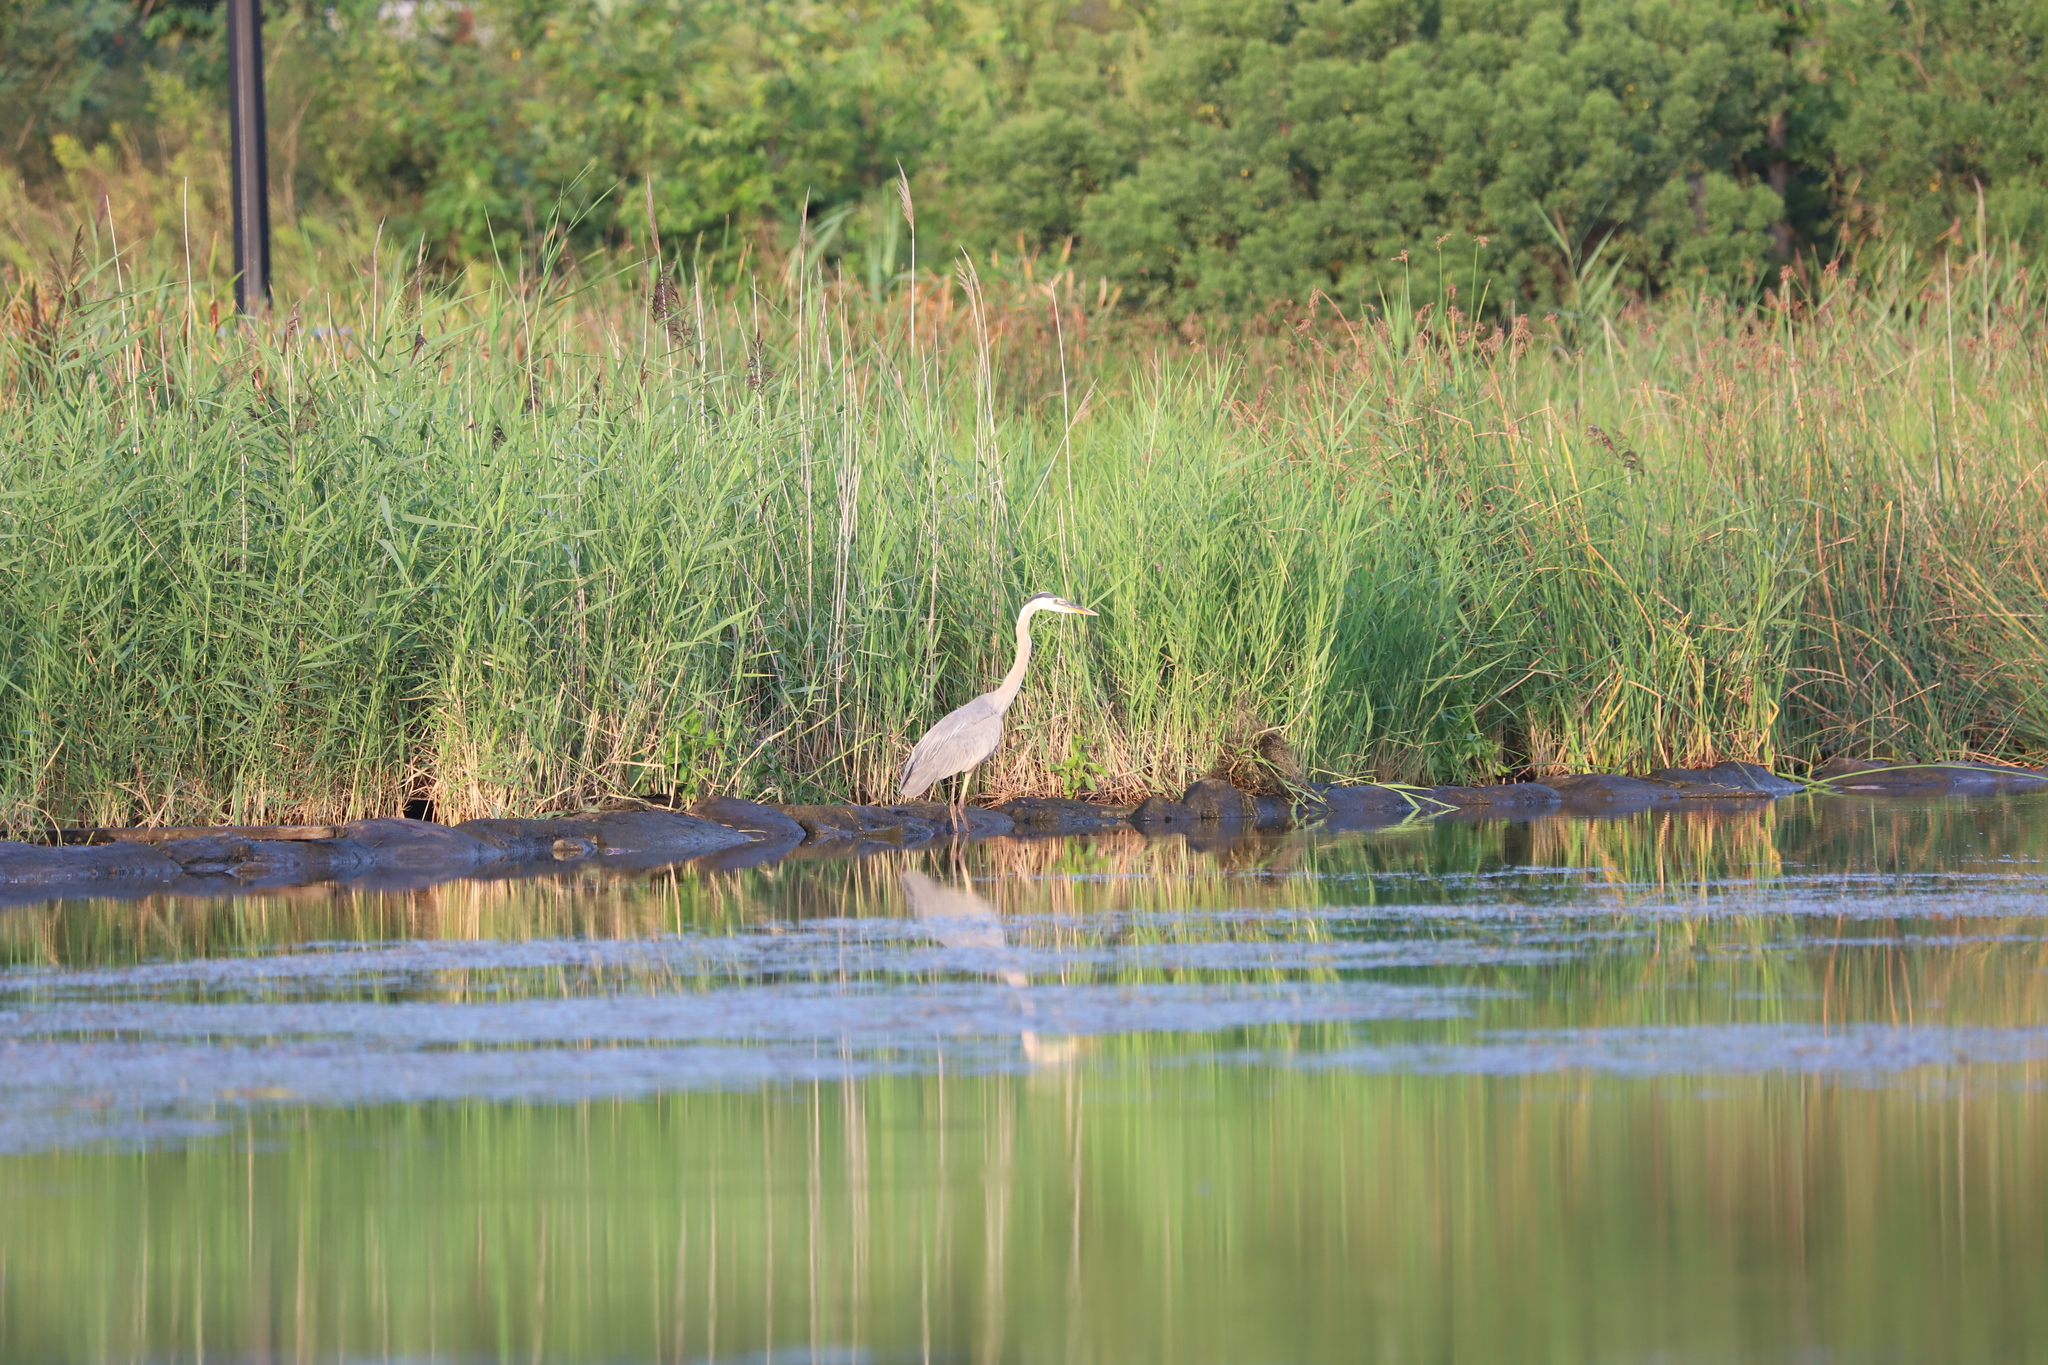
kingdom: Animalia
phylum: Chordata
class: Aves
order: Pelecaniformes
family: Ardeidae
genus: Ardea
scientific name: Ardea herodias
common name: Great blue heron
